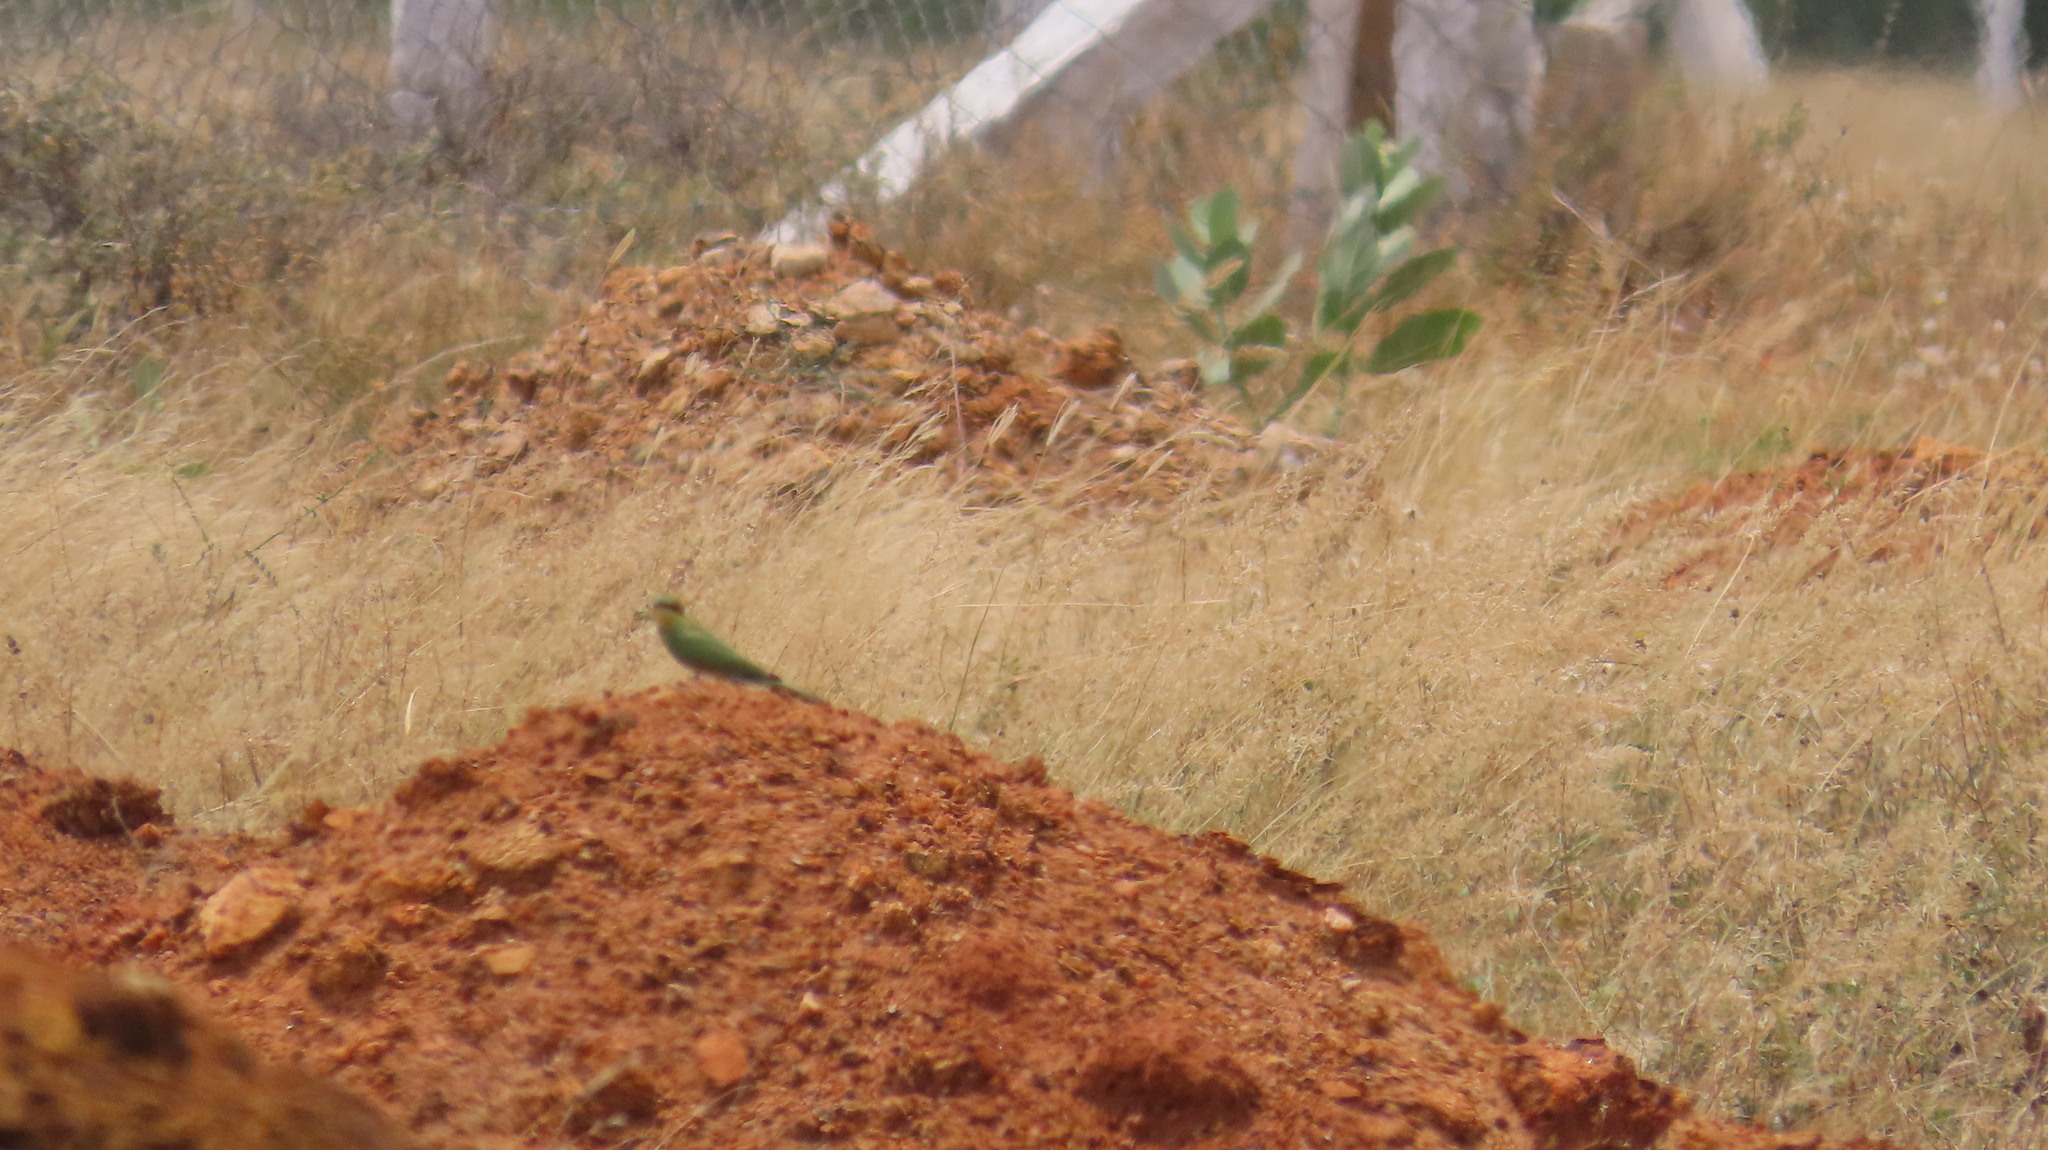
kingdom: Animalia
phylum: Chordata
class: Aves
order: Coraciiformes
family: Meropidae
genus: Merops
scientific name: Merops orientalis
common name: Green bee-eater
